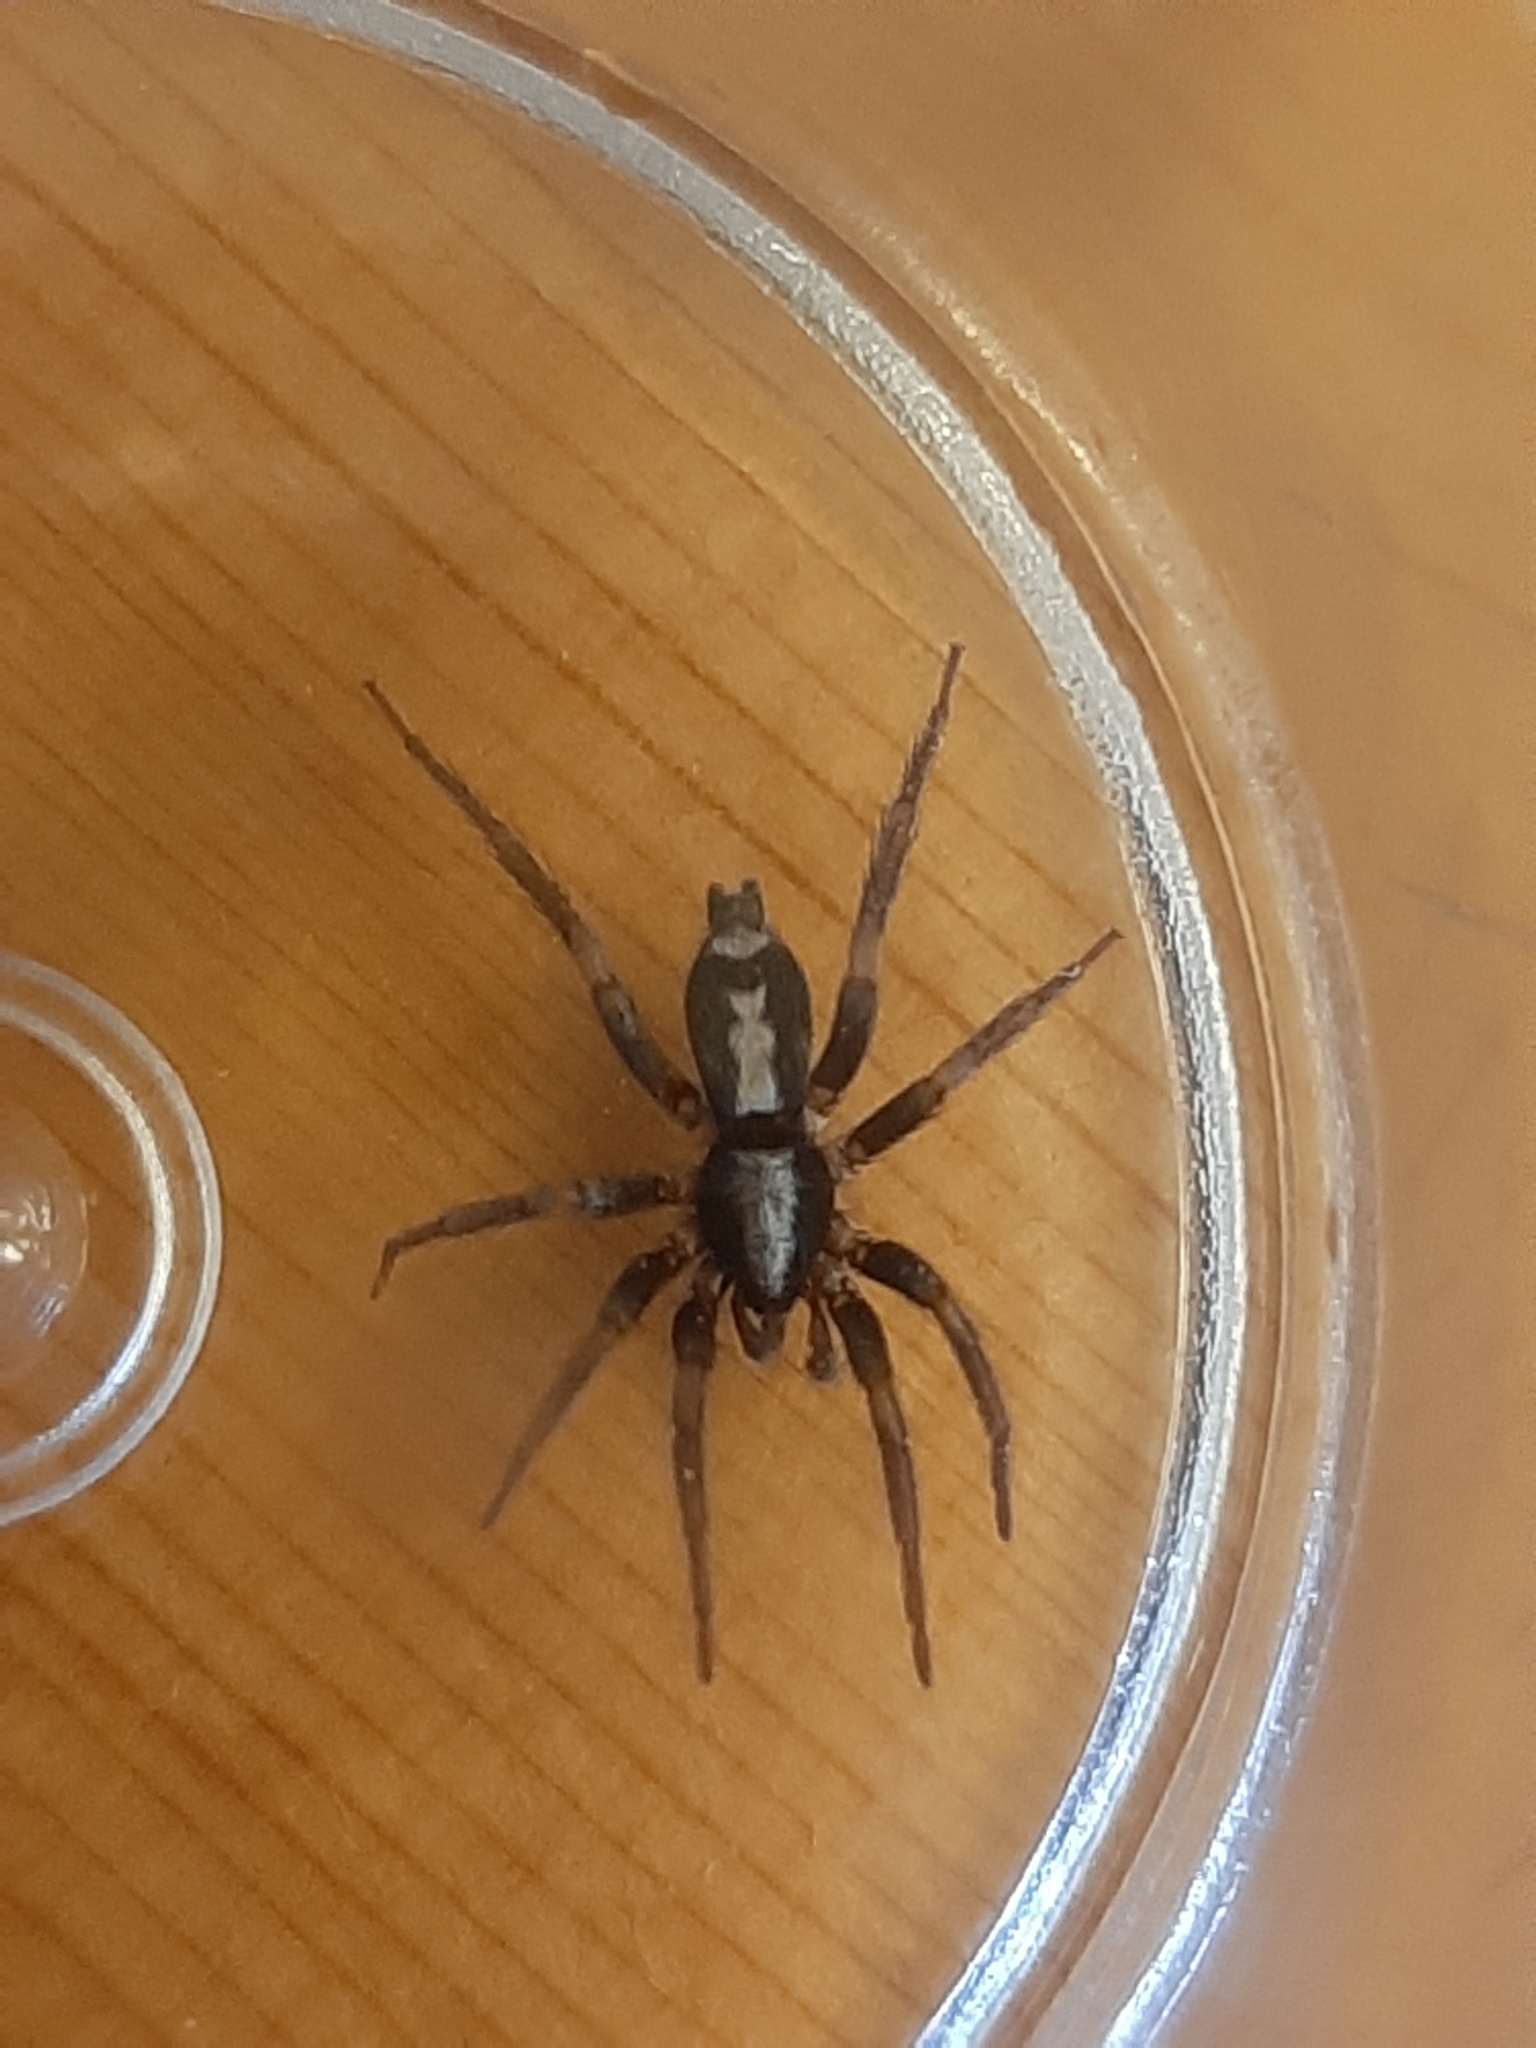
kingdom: Animalia
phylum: Arthropoda
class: Arachnida
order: Araneae
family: Gnaphosidae
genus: Herpyllus
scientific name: Herpyllus ecclesiasticus
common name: Eastern parson spider
